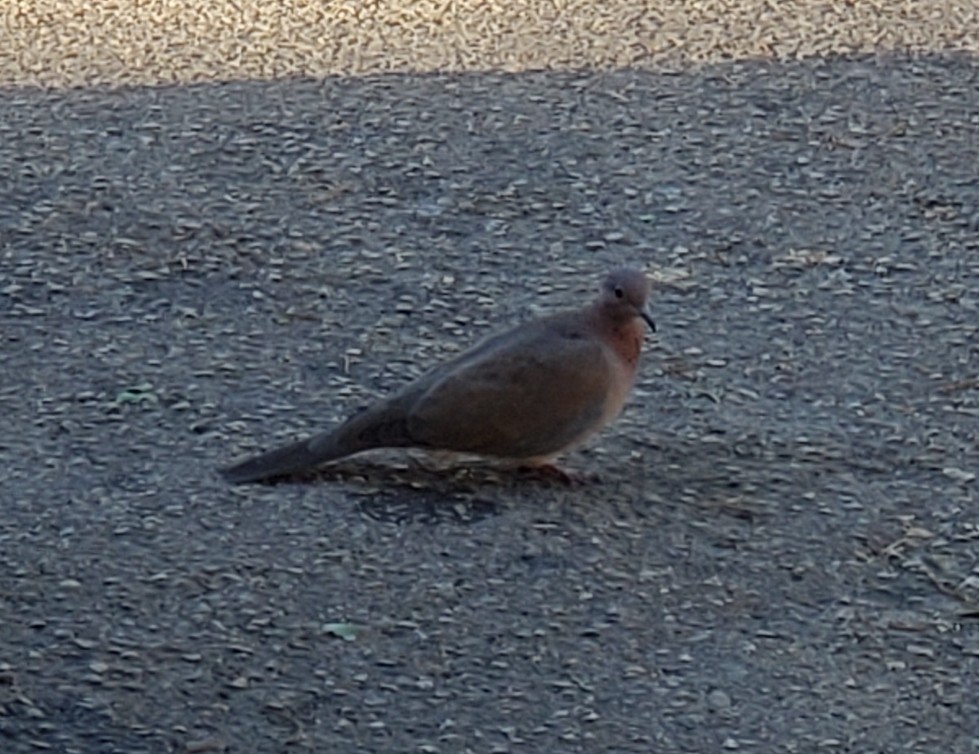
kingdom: Animalia
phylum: Chordata
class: Aves
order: Columbiformes
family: Columbidae
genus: Spilopelia
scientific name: Spilopelia senegalensis
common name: Laughing dove
